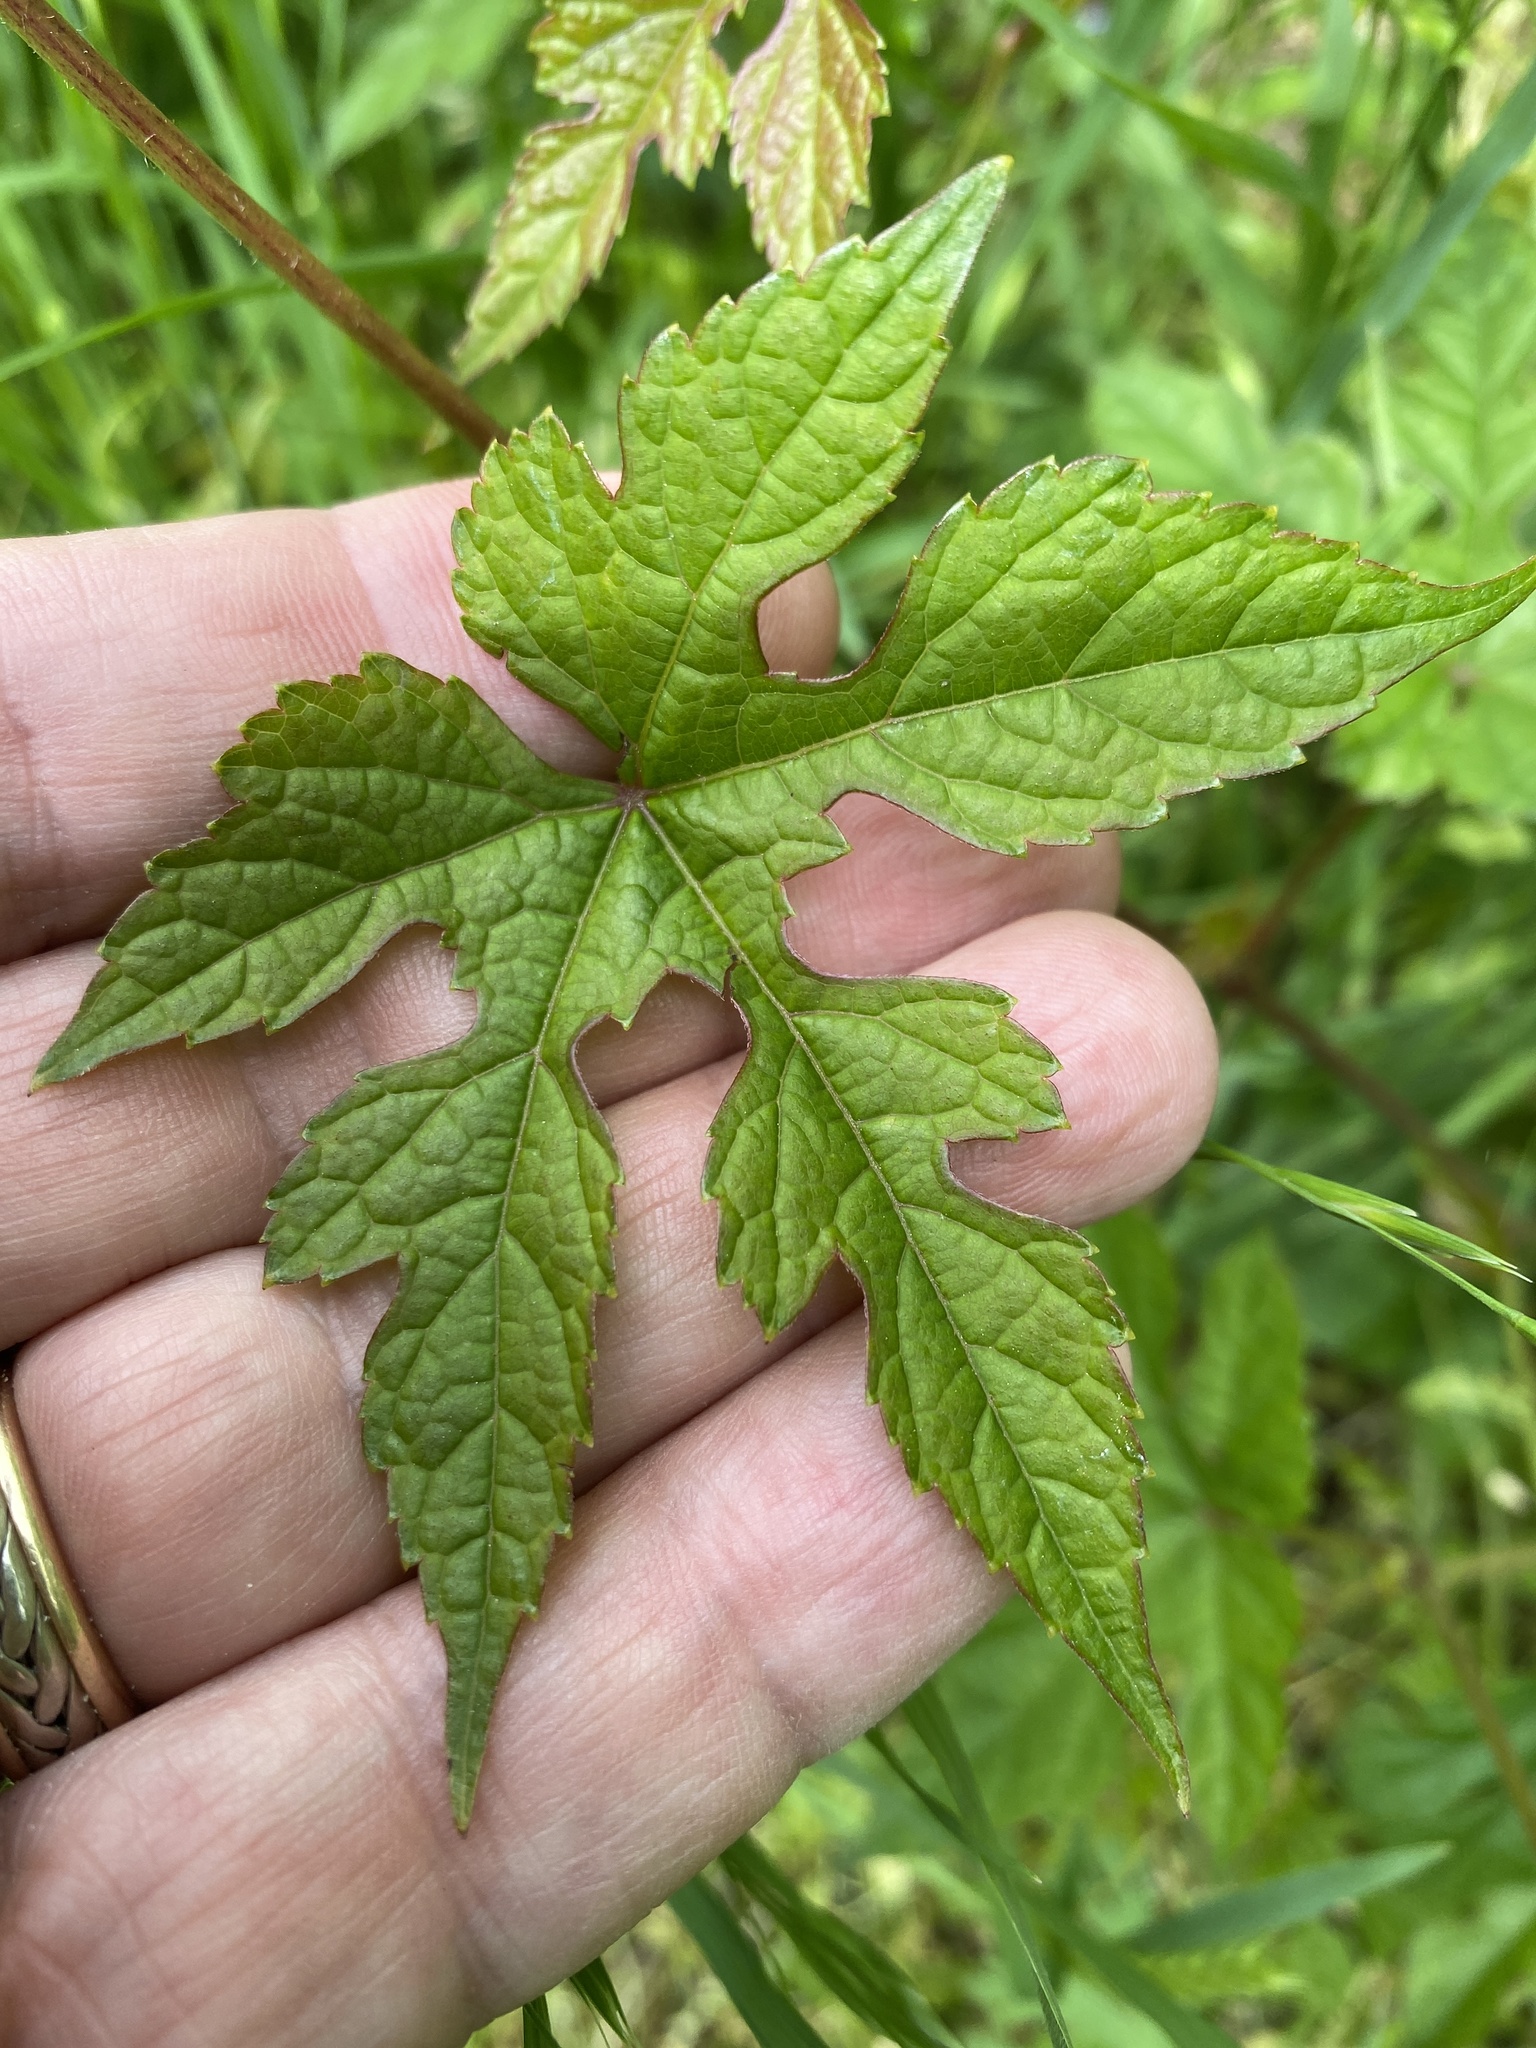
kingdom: Plantae
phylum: Tracheophyta
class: Magnoliopsida
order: Vitales
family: Vitaceae
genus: Ampelopsis
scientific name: Ampelopsis glandulosa
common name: Amur peppervine
